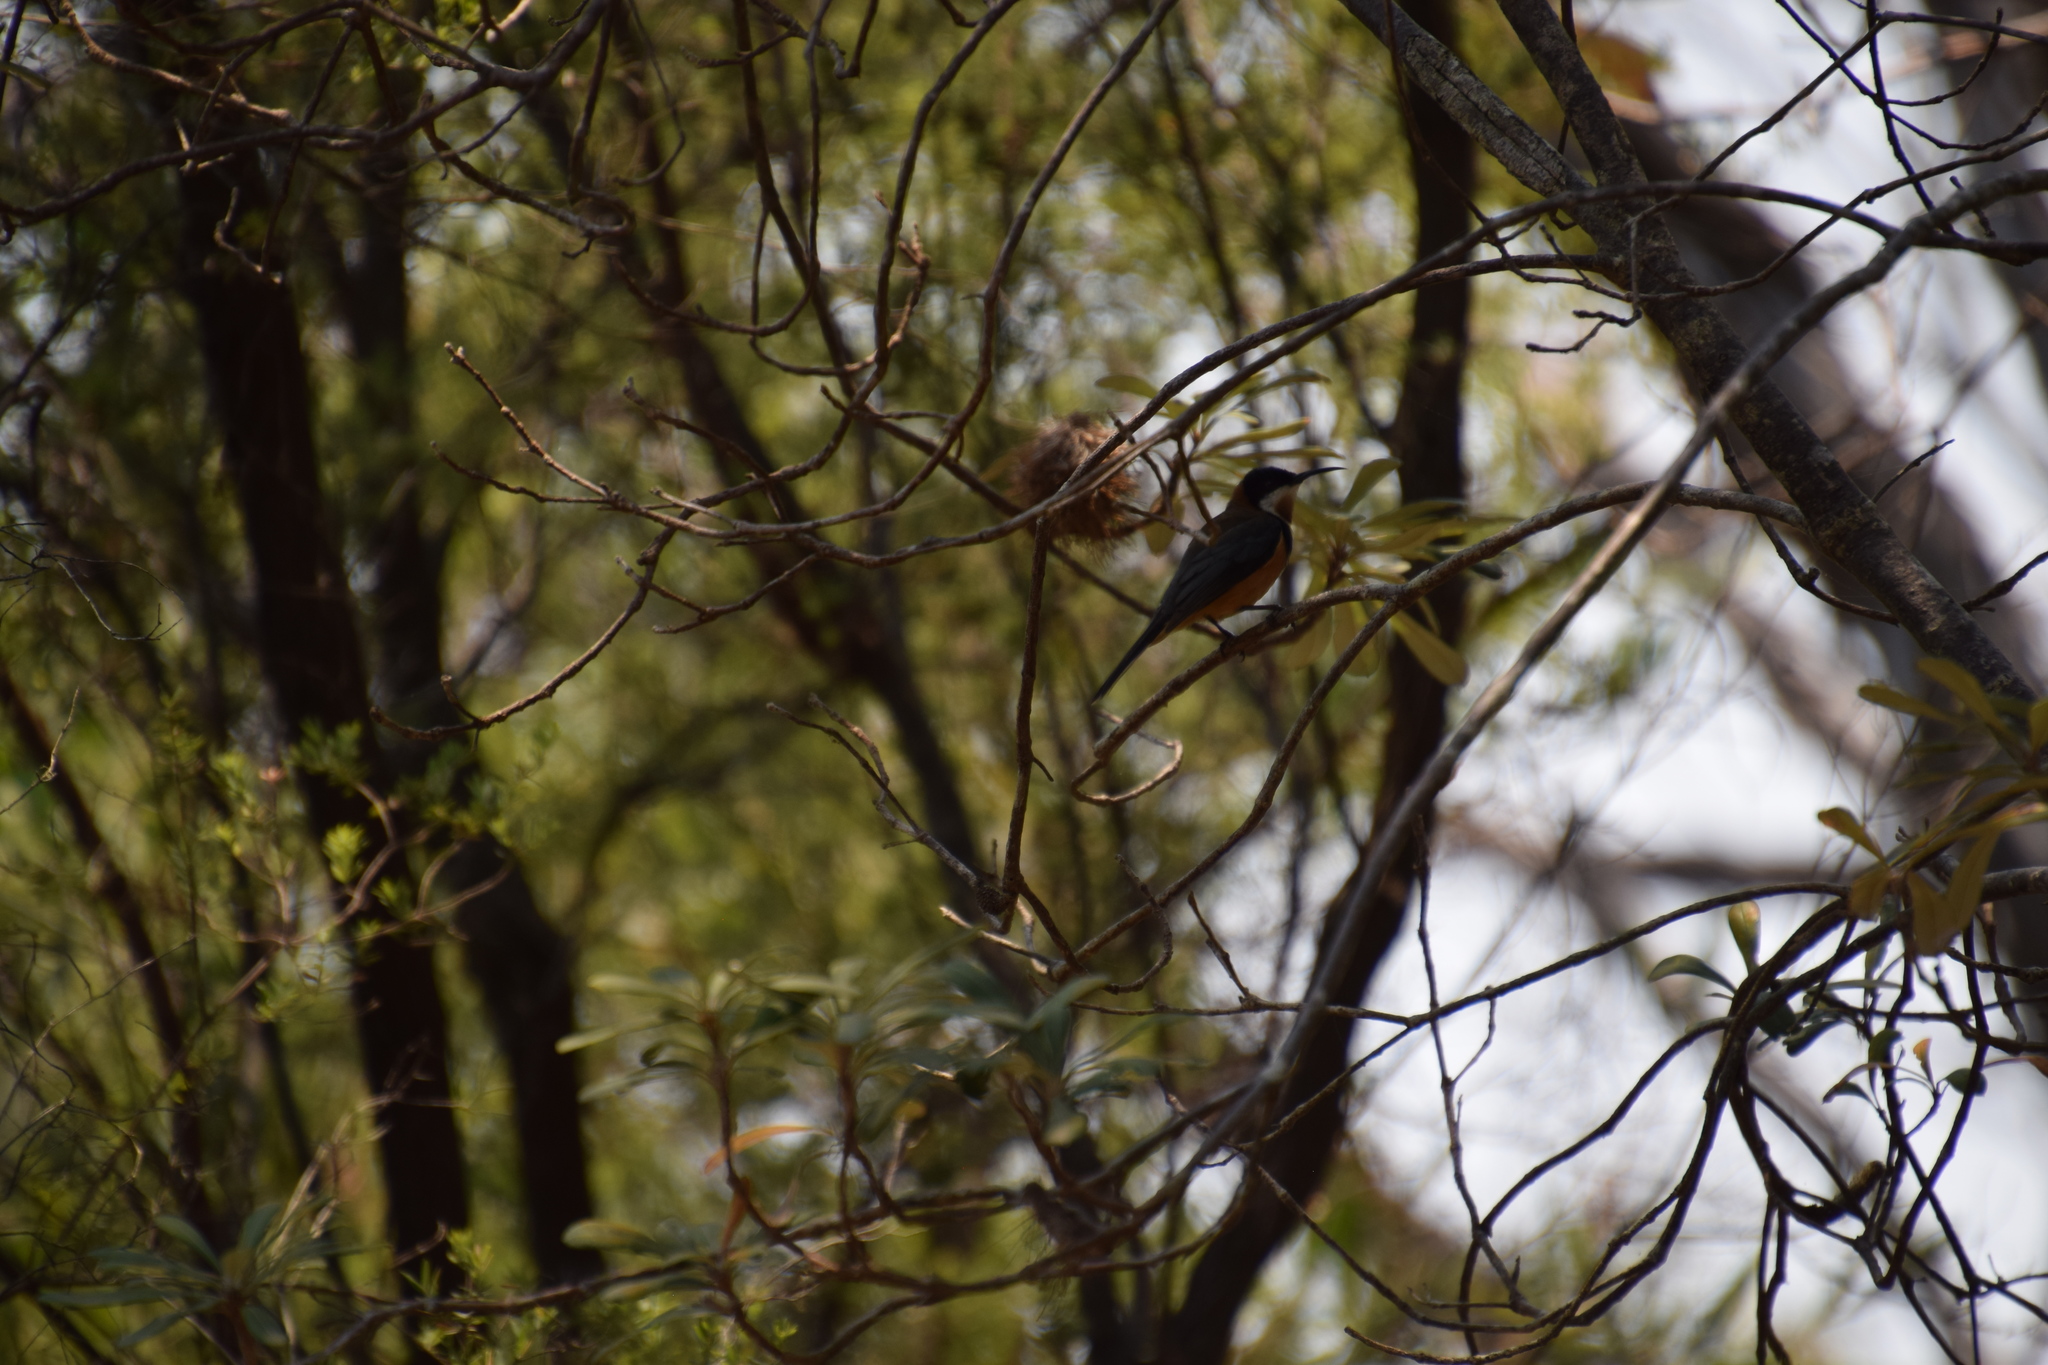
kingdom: Animalia
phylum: Chordata
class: Aves
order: Passeriformes
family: Meliphagidae
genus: Acanthorhynchus
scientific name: Acanthorhynchus tenuirostris
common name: Eastern spinebill
